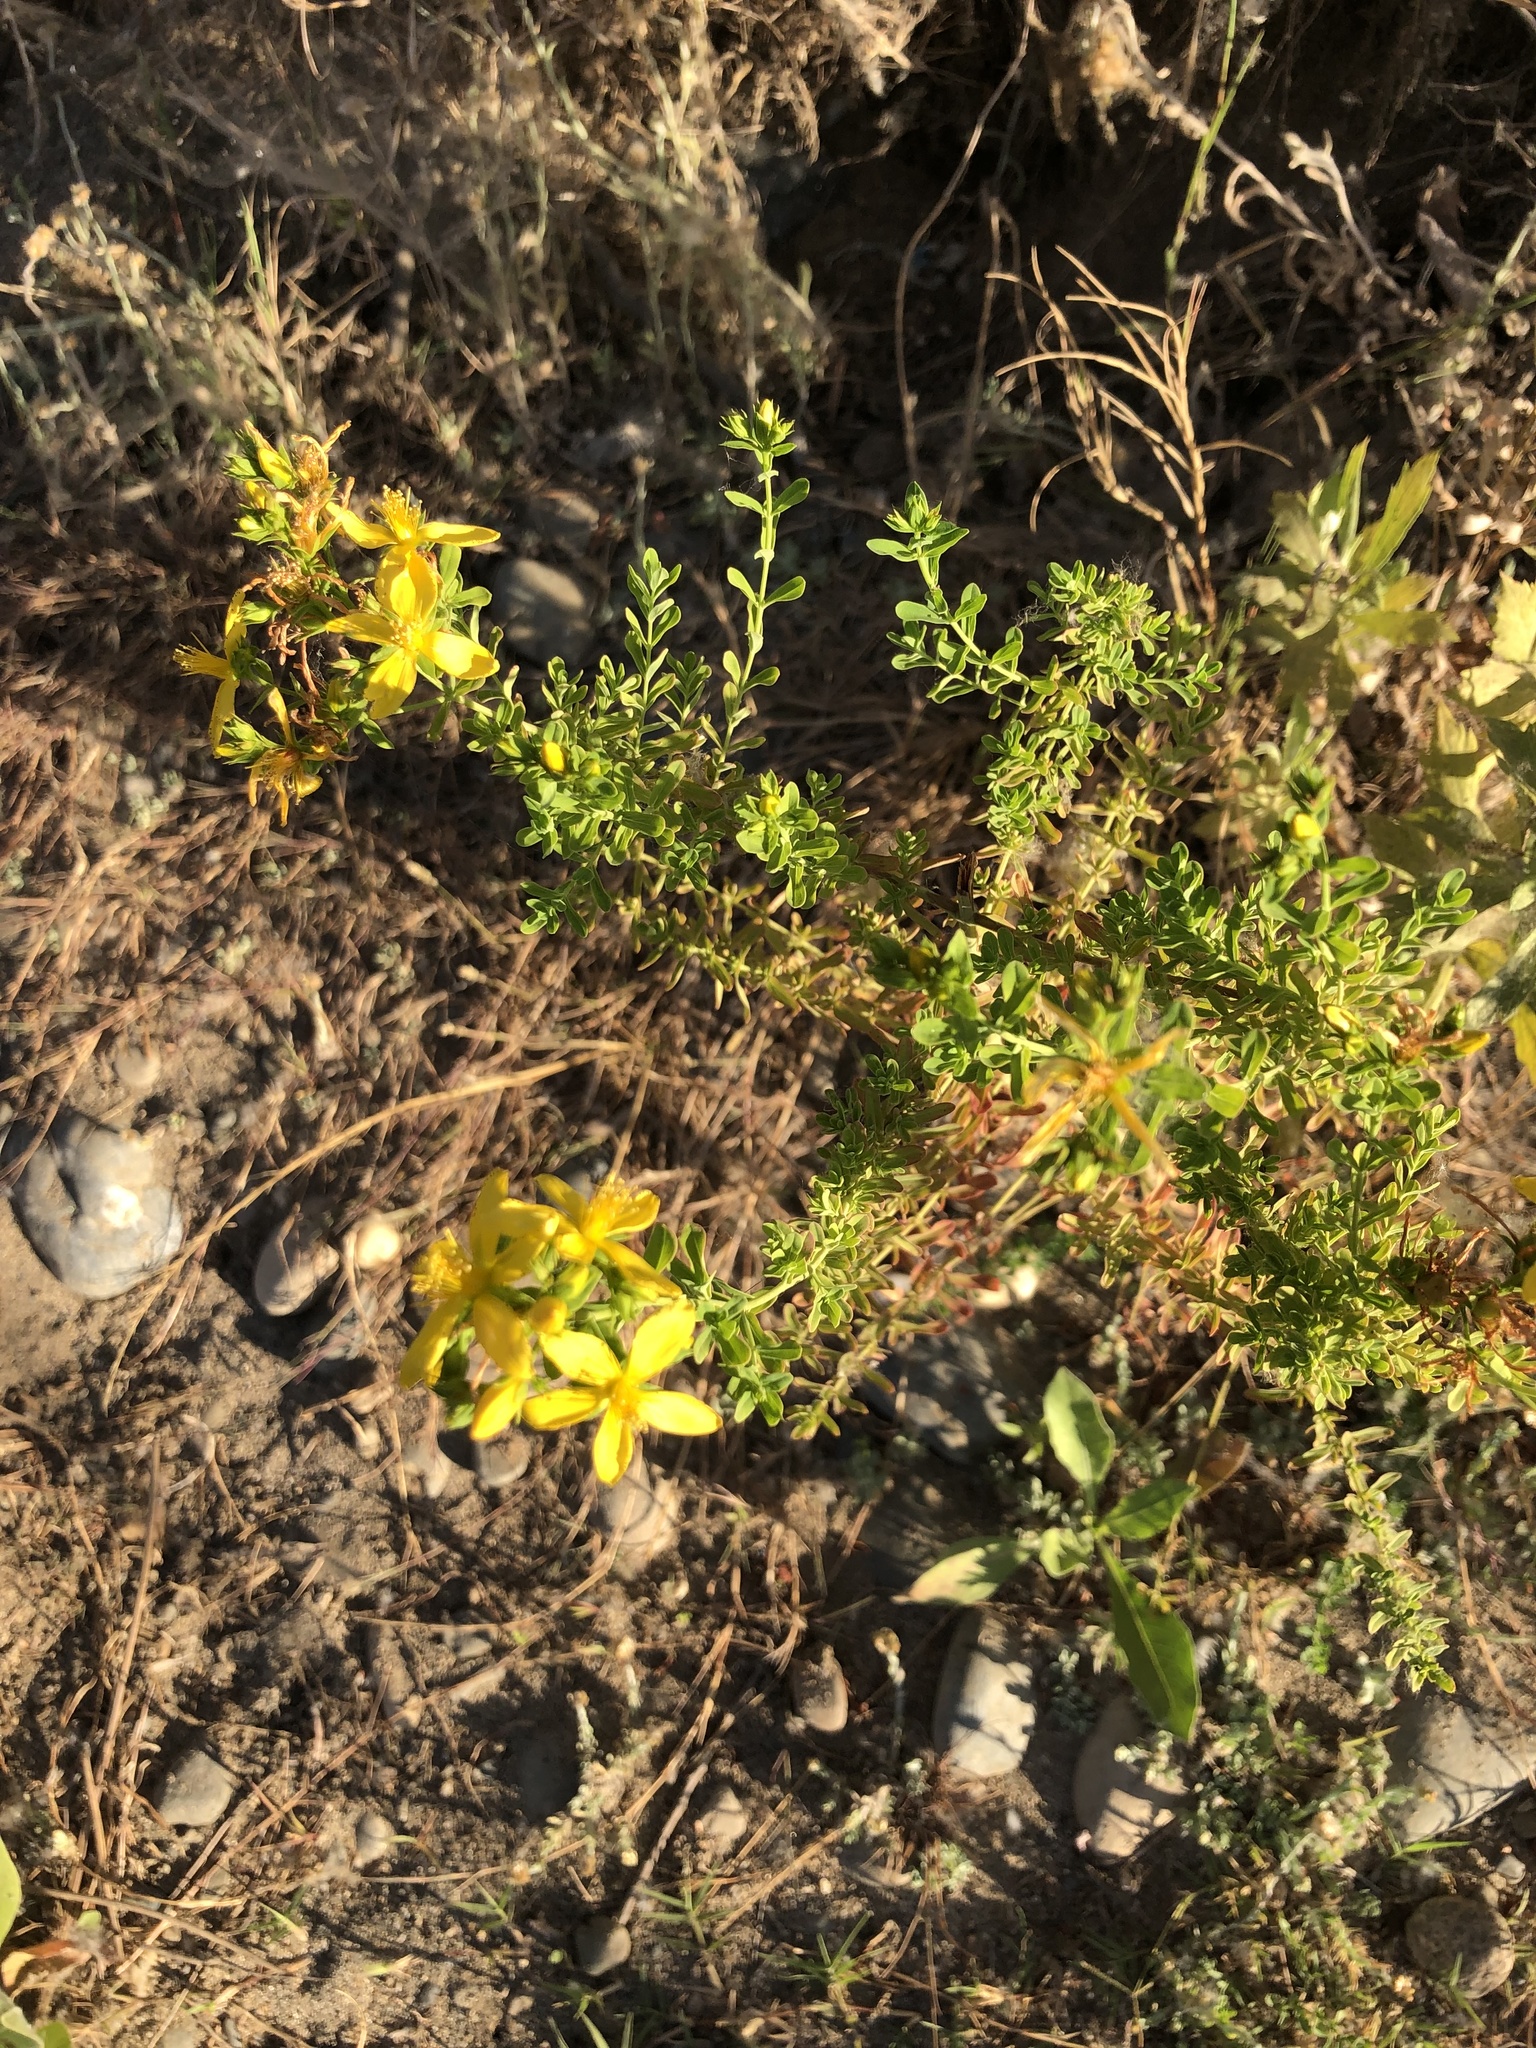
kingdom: Plantae
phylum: Tracheophyta
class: Magnoliopsida
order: Malpighiales
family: Hypericaceae
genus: Hypericum
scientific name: Hypericum perforatum
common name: Common st. johnswort
